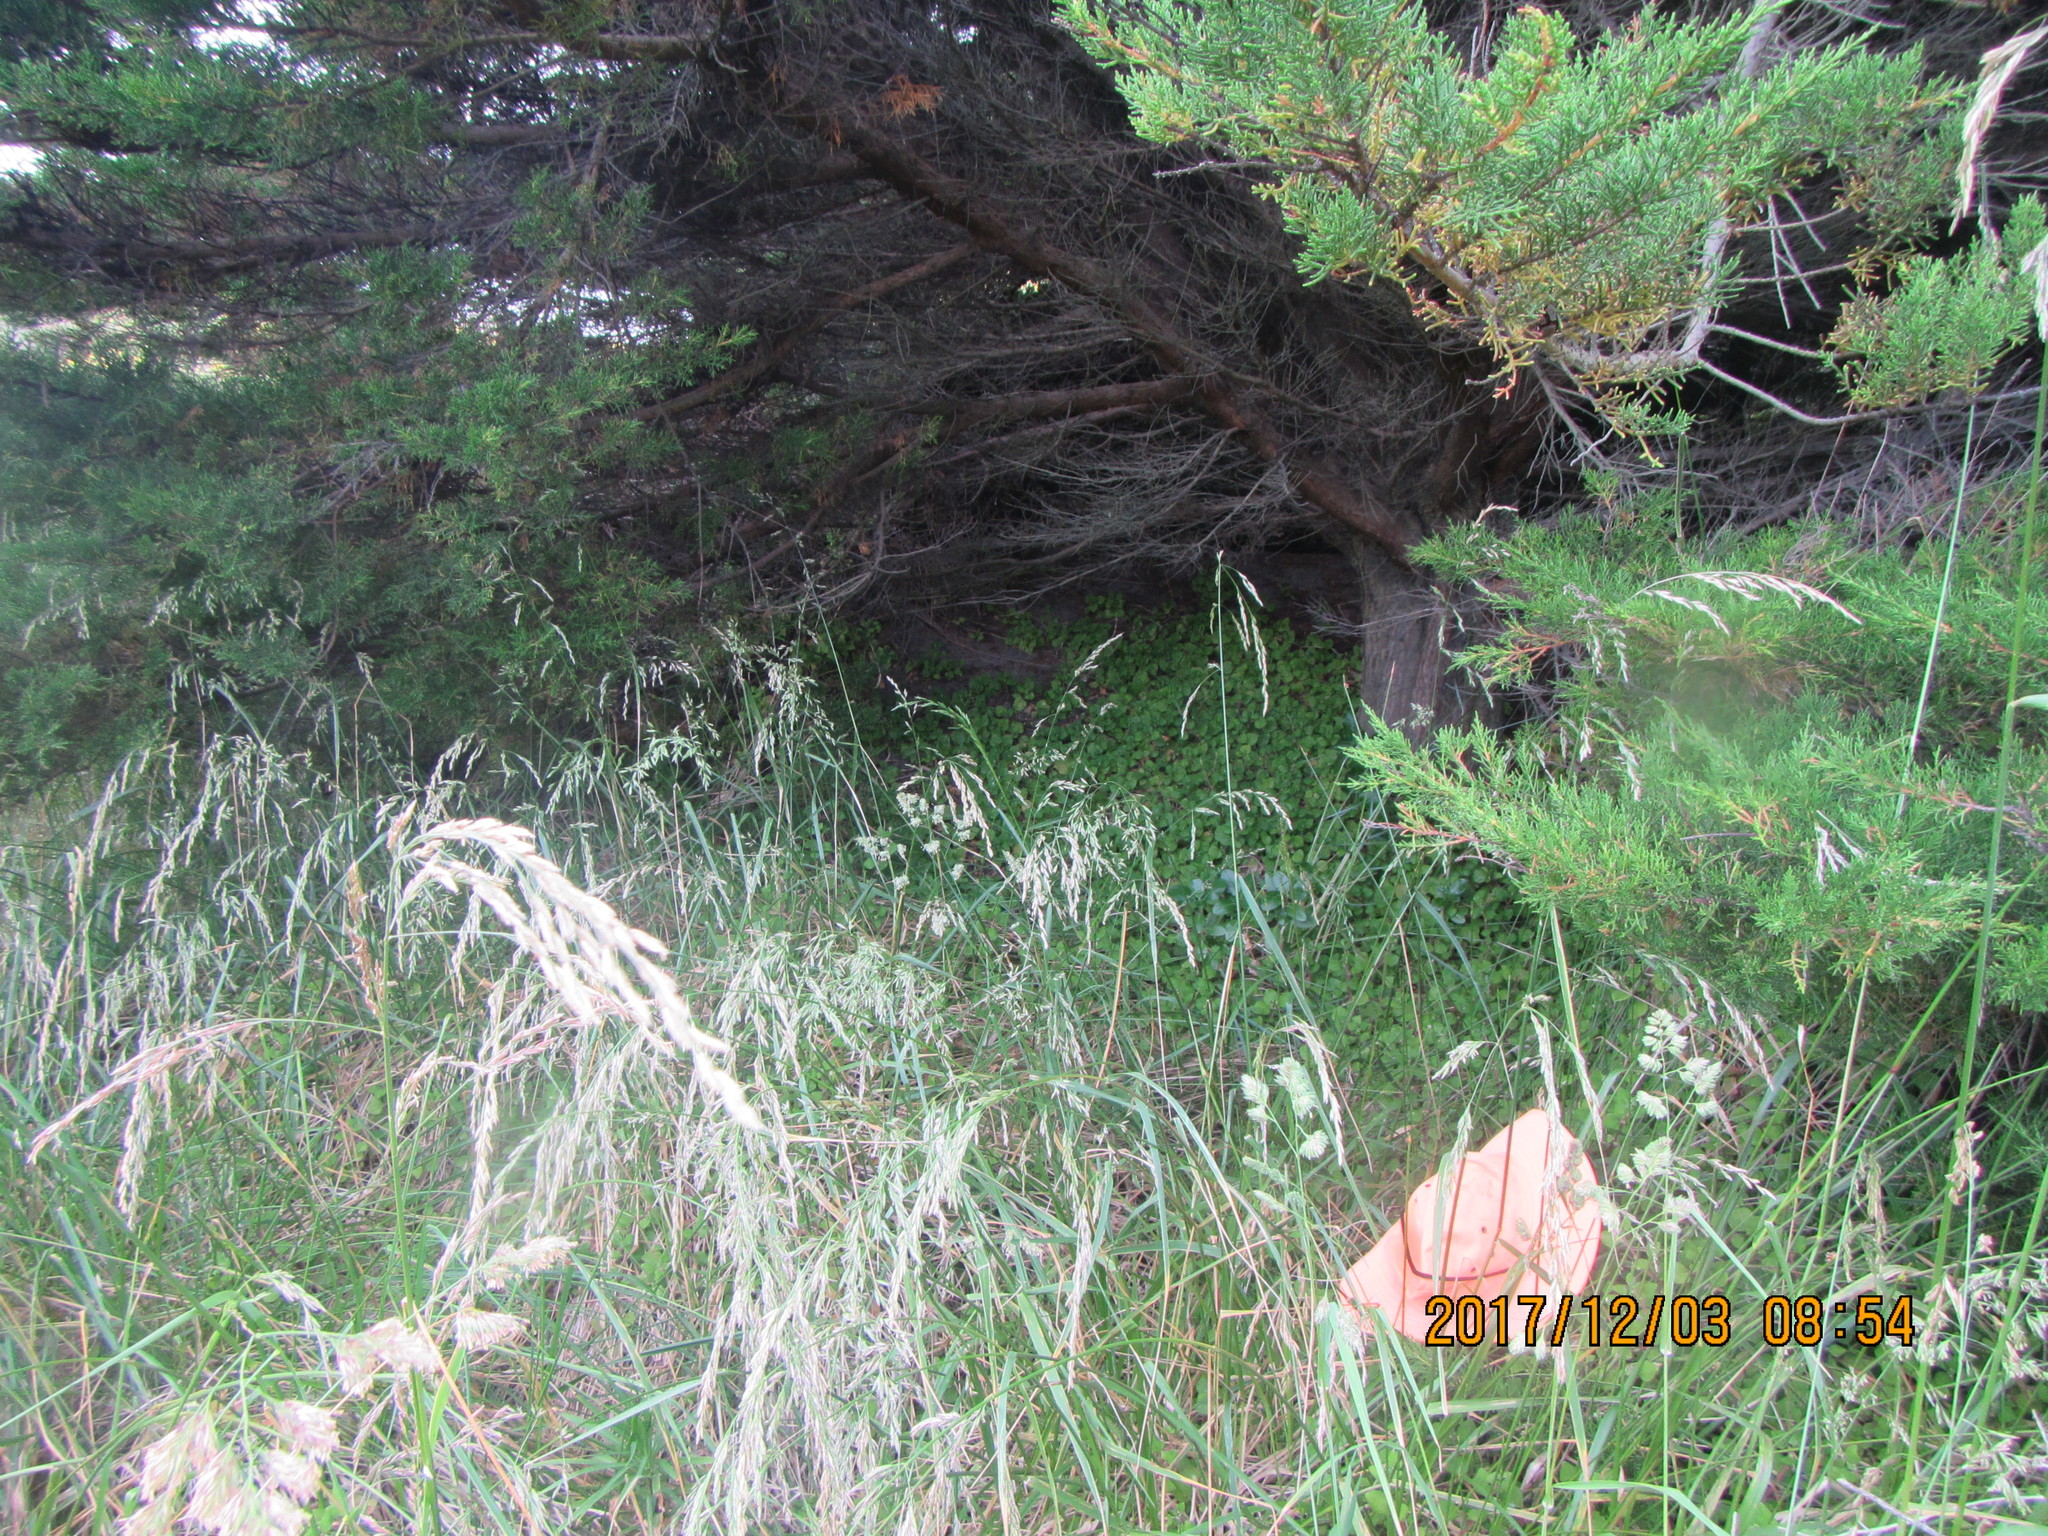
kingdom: Plantae
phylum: Tracheophyta
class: Magnoliopsida
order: Caryophyllales
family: Aizoaceae
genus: Tetragonia
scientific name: Tetragonia implexicoma
